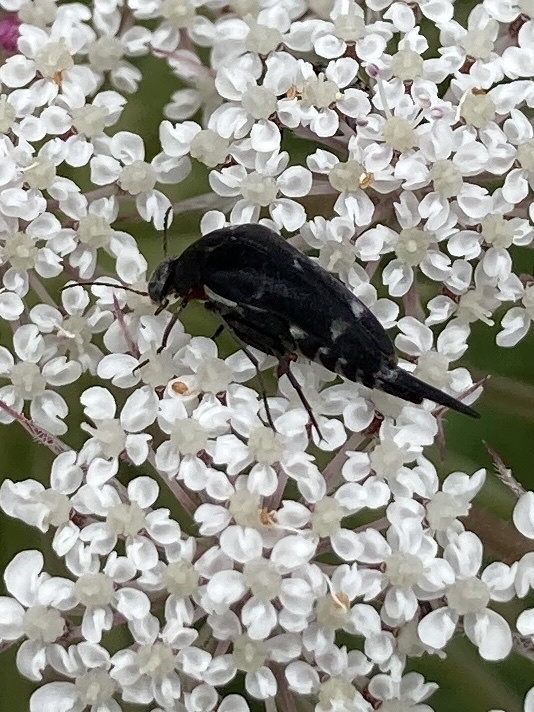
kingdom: Animalia
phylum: Arthropoda
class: Insecta
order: Coleoptera
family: Mordellidae
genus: Mordella
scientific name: Mordella
